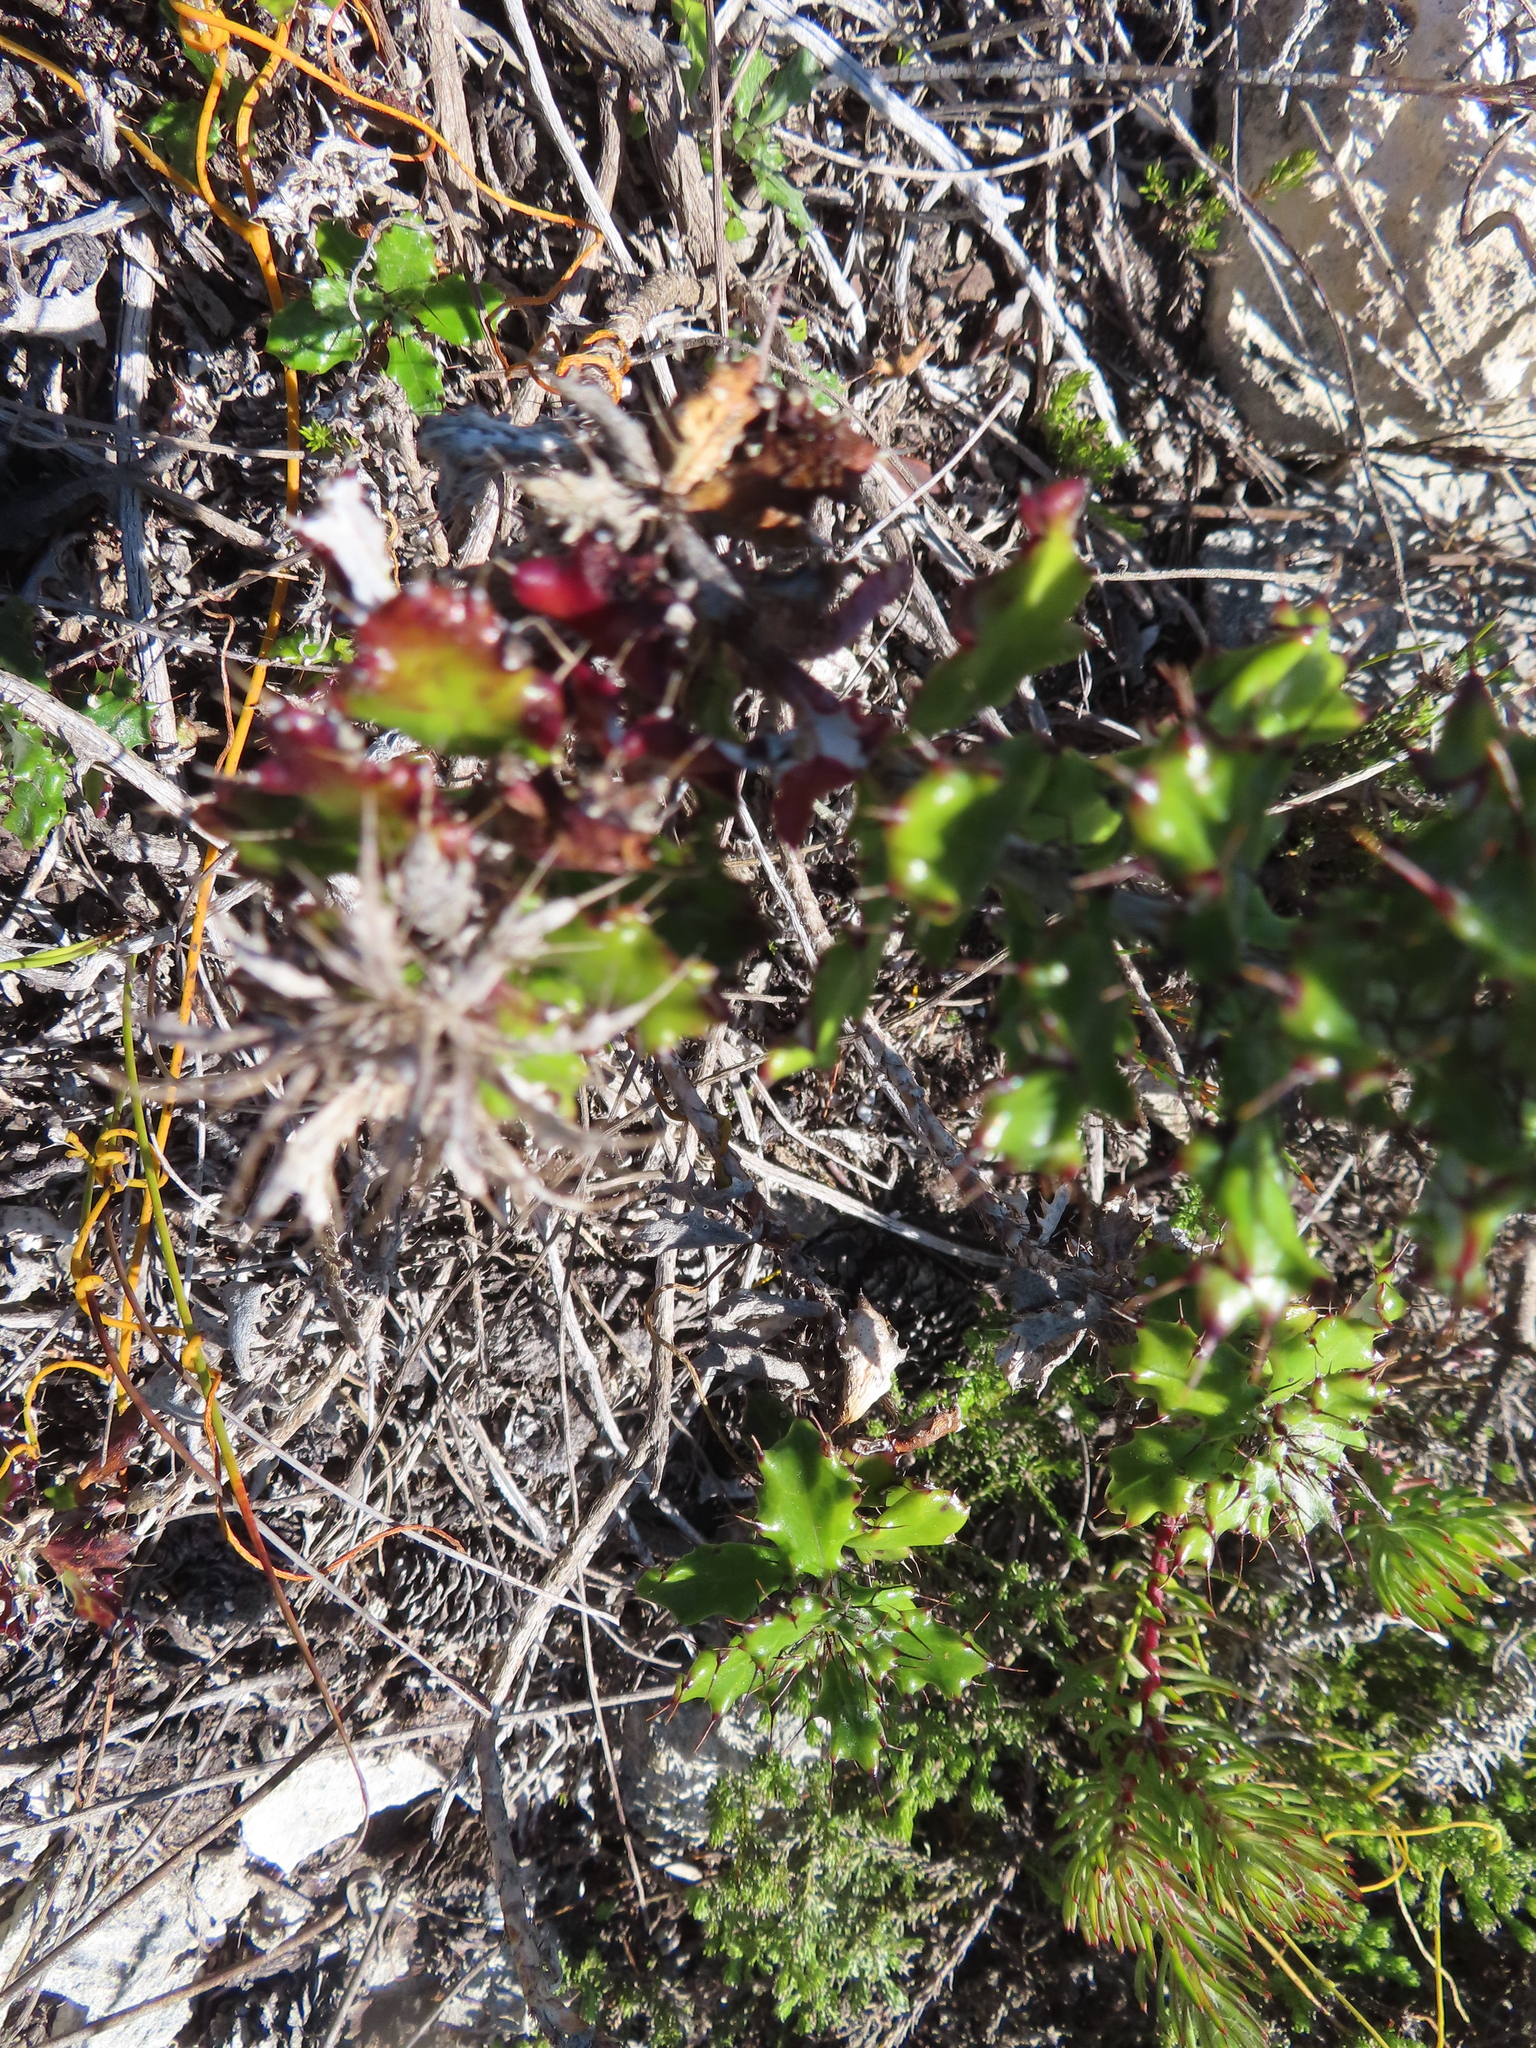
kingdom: Plantae
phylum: Tracheophyta
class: Magnoliopsida
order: Asterales
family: Asteraceae
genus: Berkheya
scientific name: Berkheya barbata
